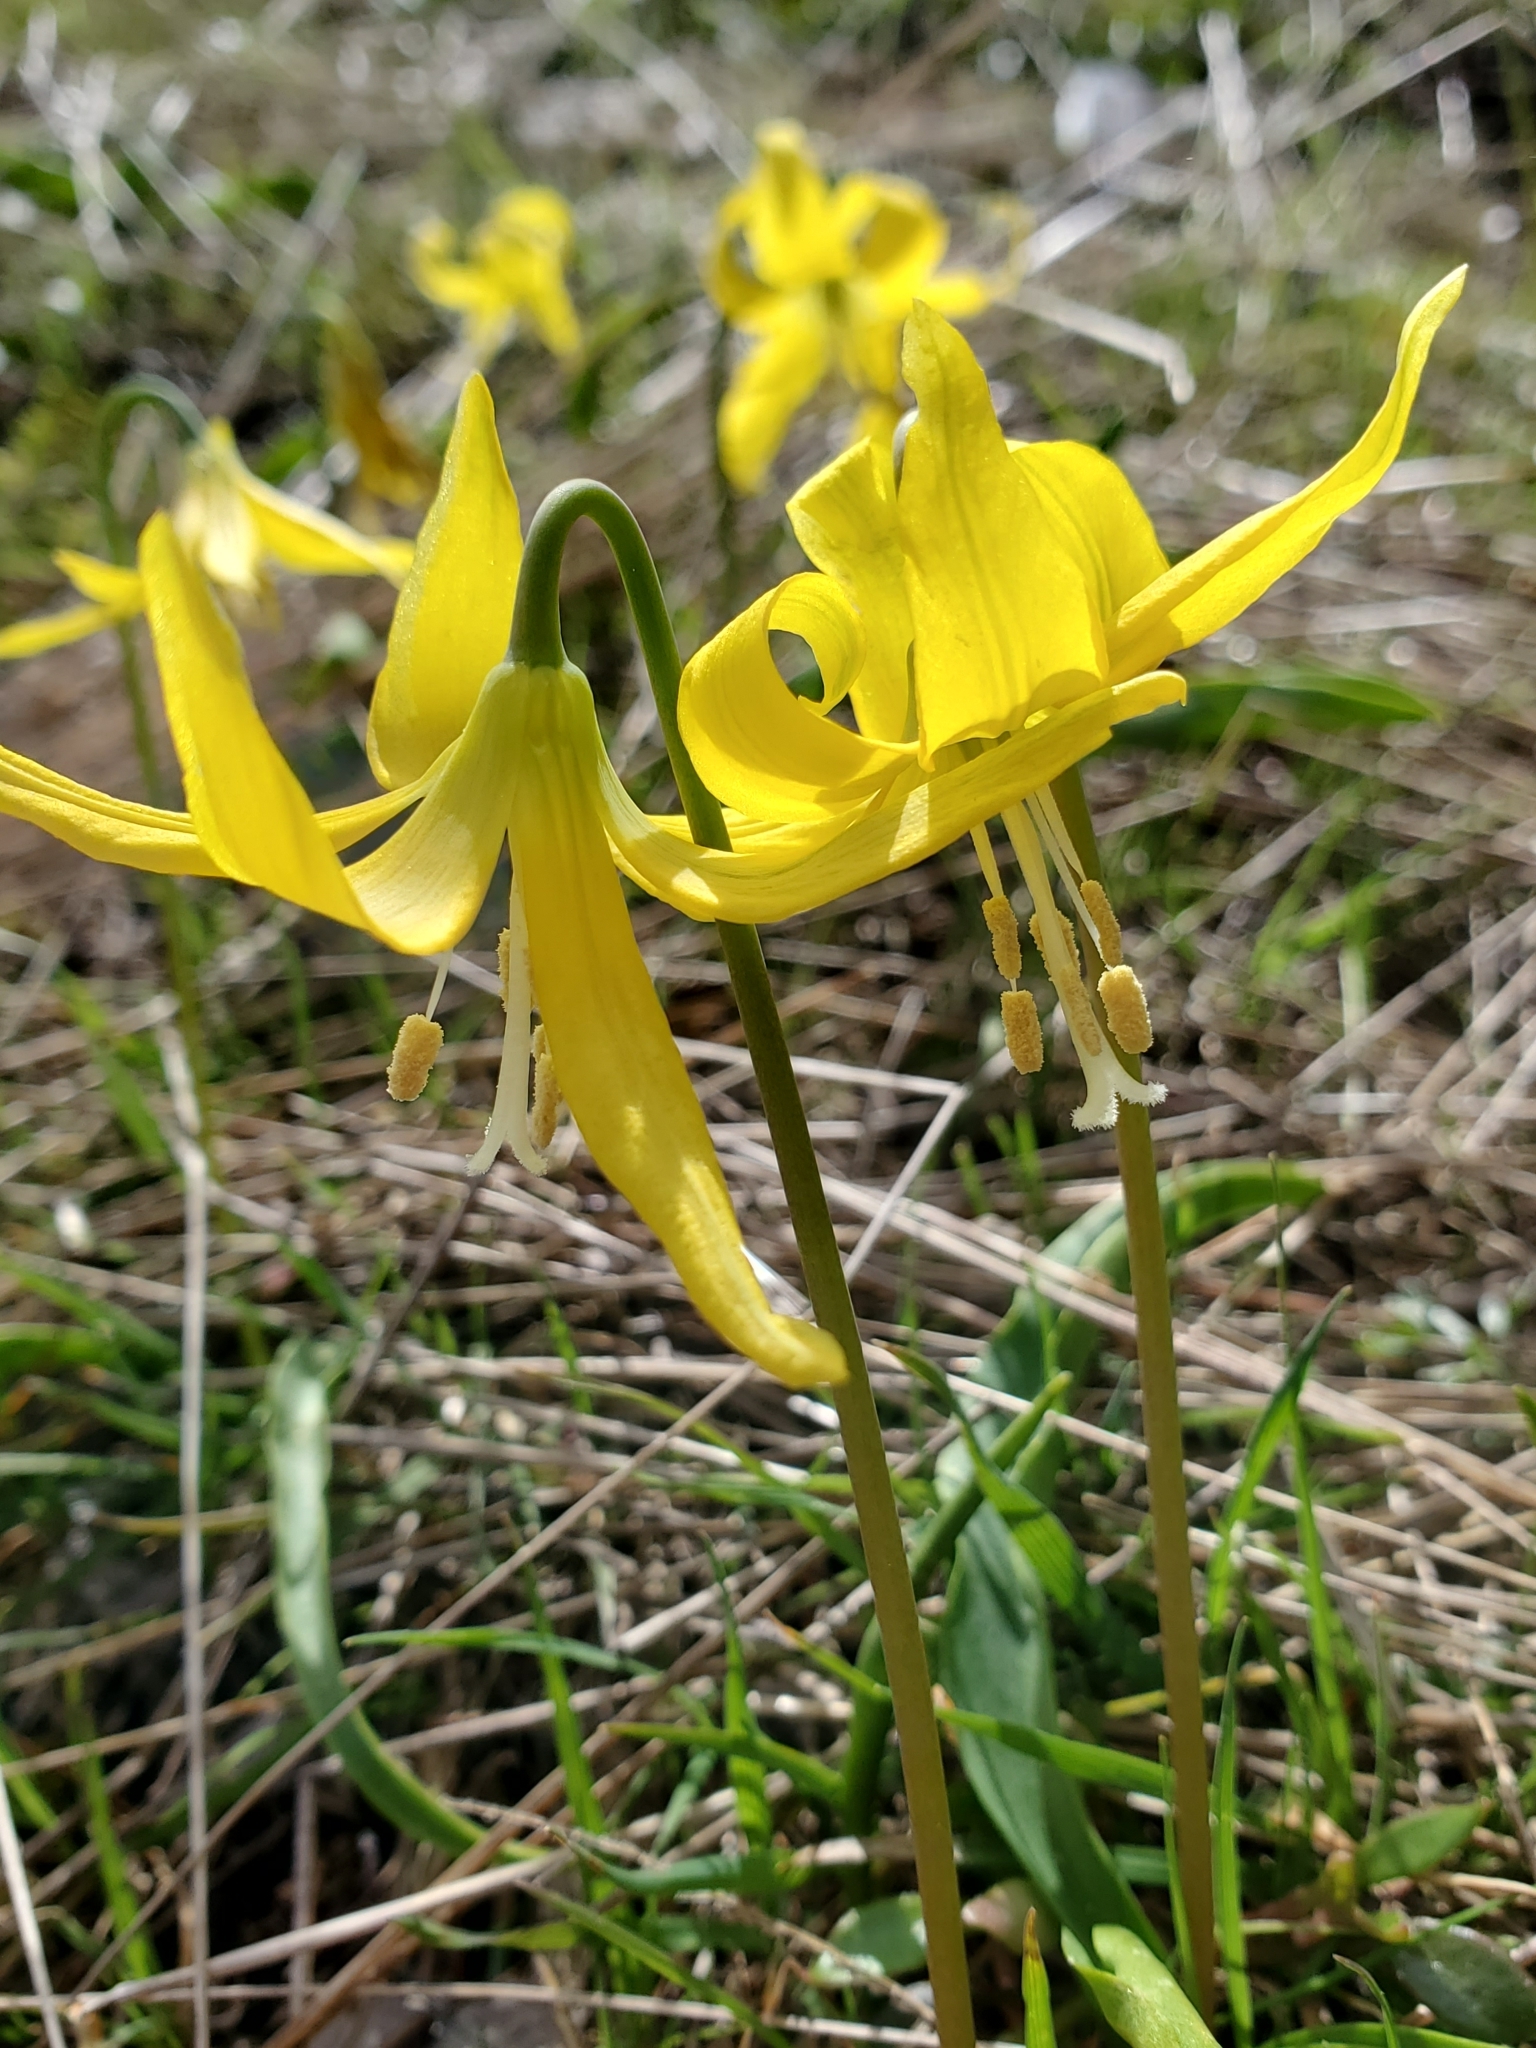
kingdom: Plantae
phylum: Tracheophyta
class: Liliopsida
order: Liliales
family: Liliaceae
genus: Erythronium
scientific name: Erythronium grandiflorum
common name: Avalanche-lily
